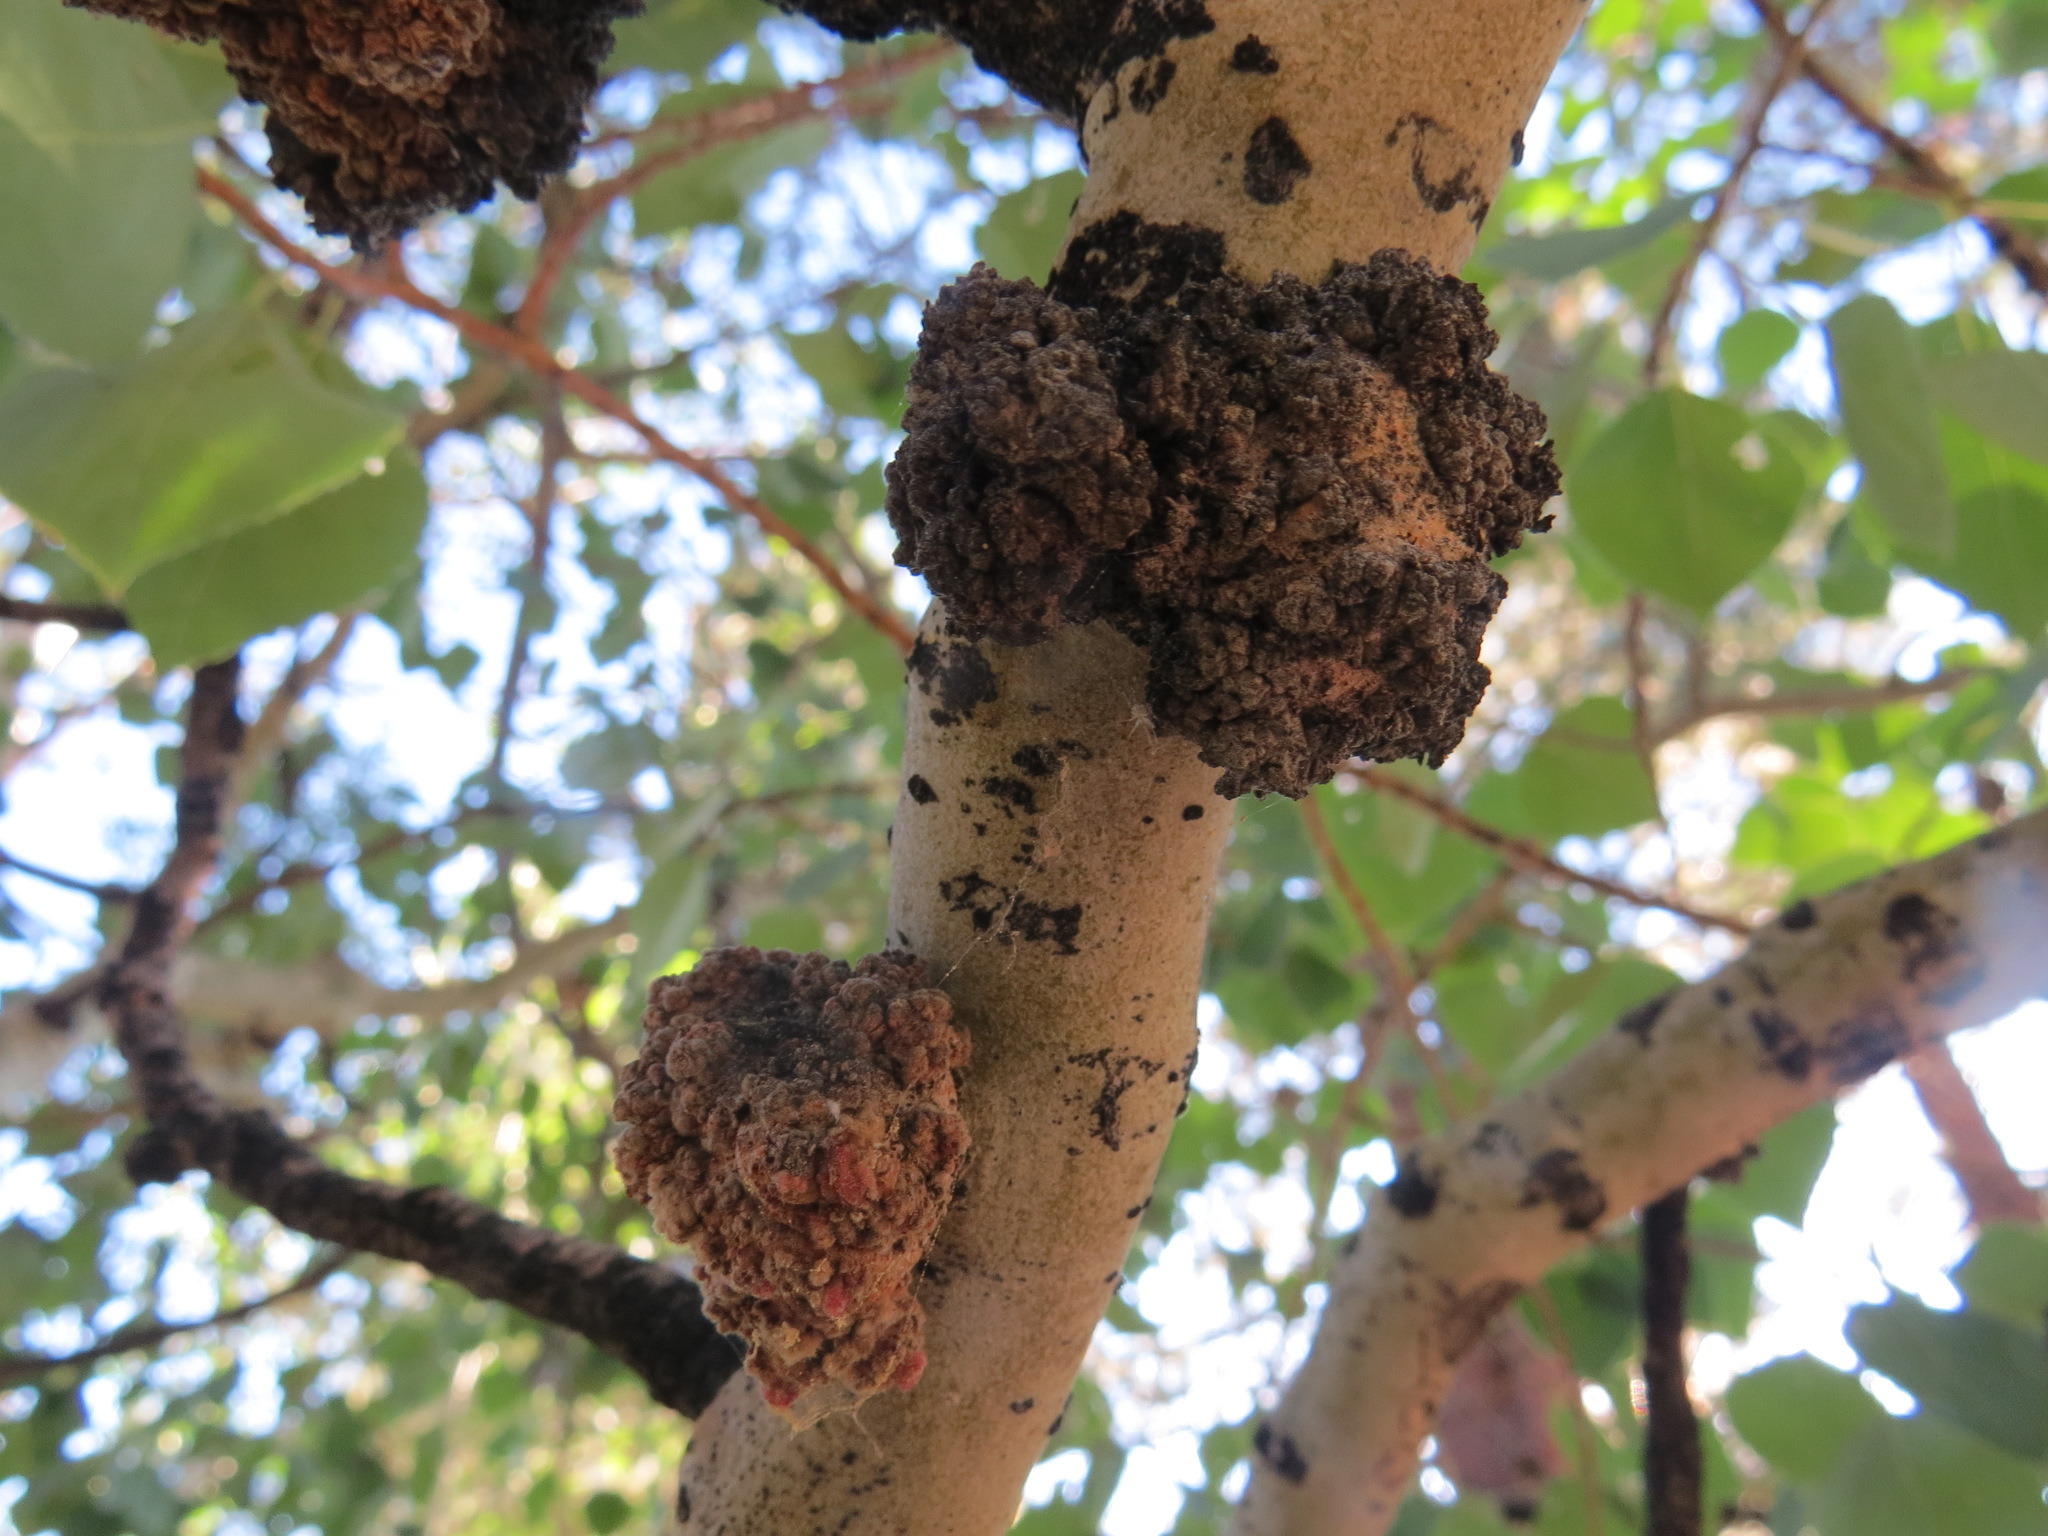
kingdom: Animalia
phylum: Arthropoda
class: Arachnida
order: Trombidiformes
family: Eriophyidae
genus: Aceria
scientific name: Aceria
